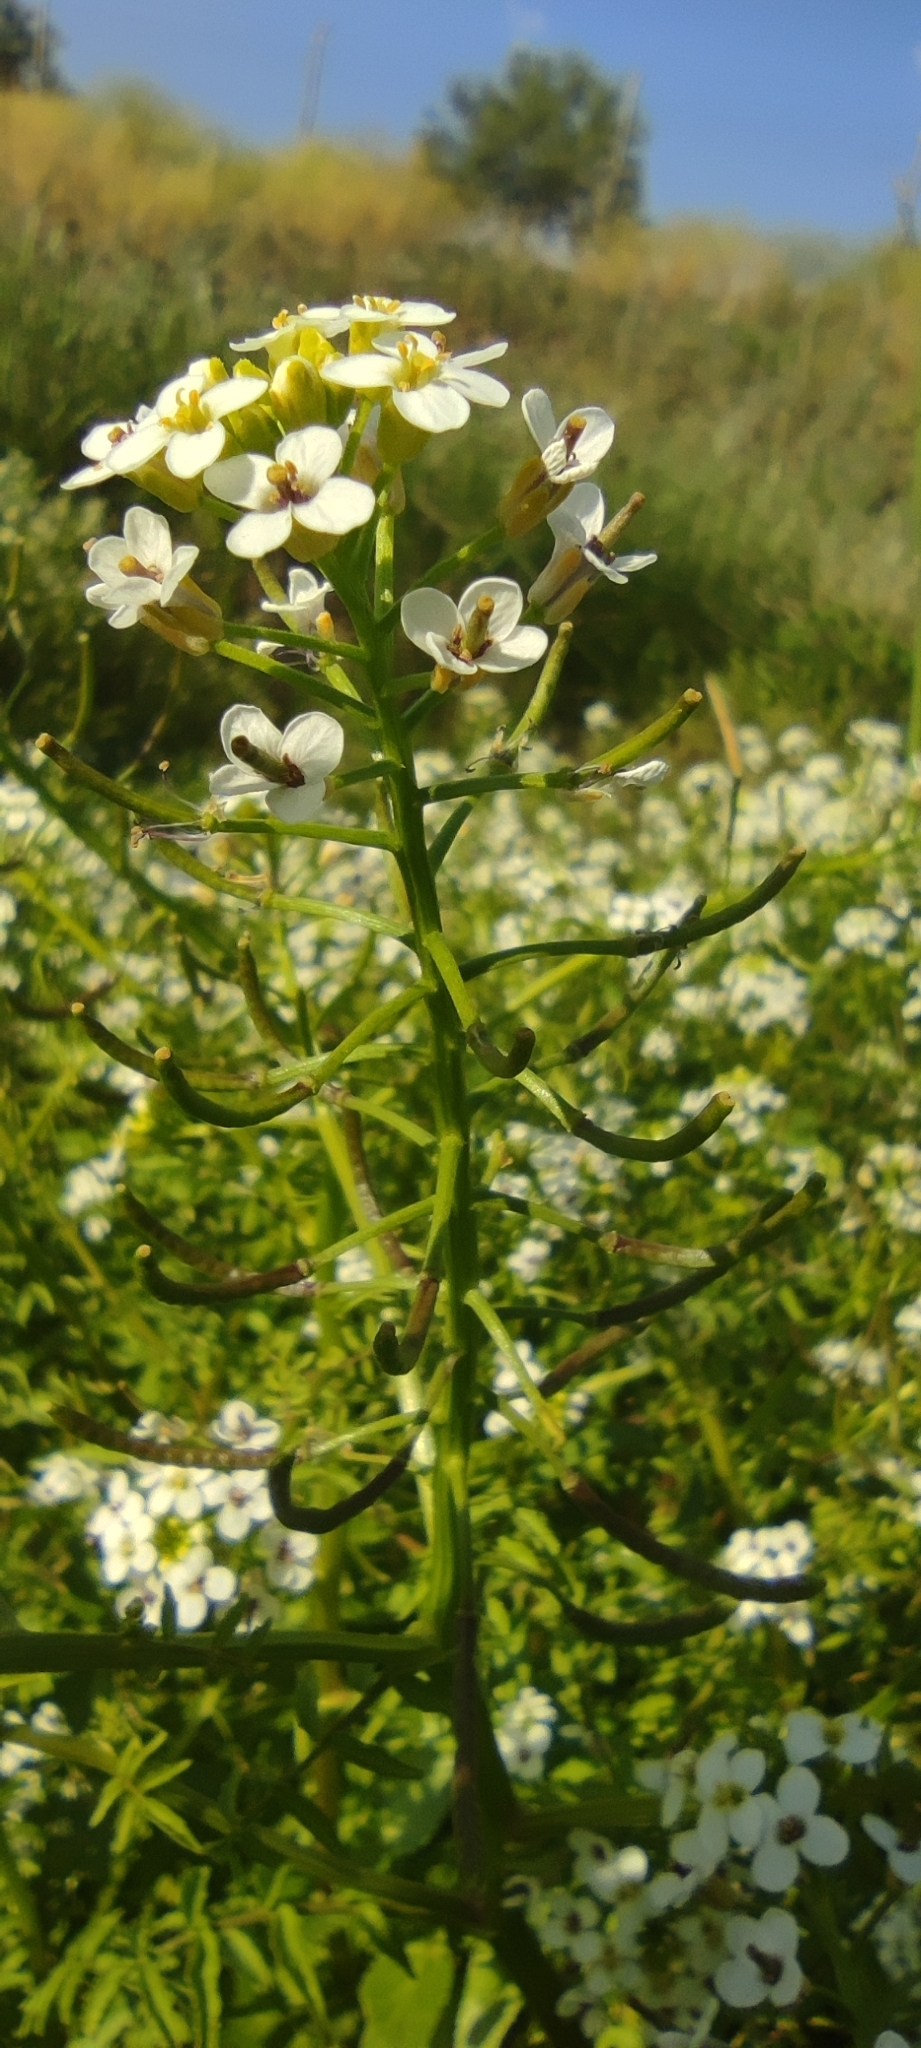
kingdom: Plantae
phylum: Tracheophyta
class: Magnoliopsida
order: Brassicales
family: Brassicaceae
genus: Nasturtium
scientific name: Nasturtium officinale
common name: Watercress
